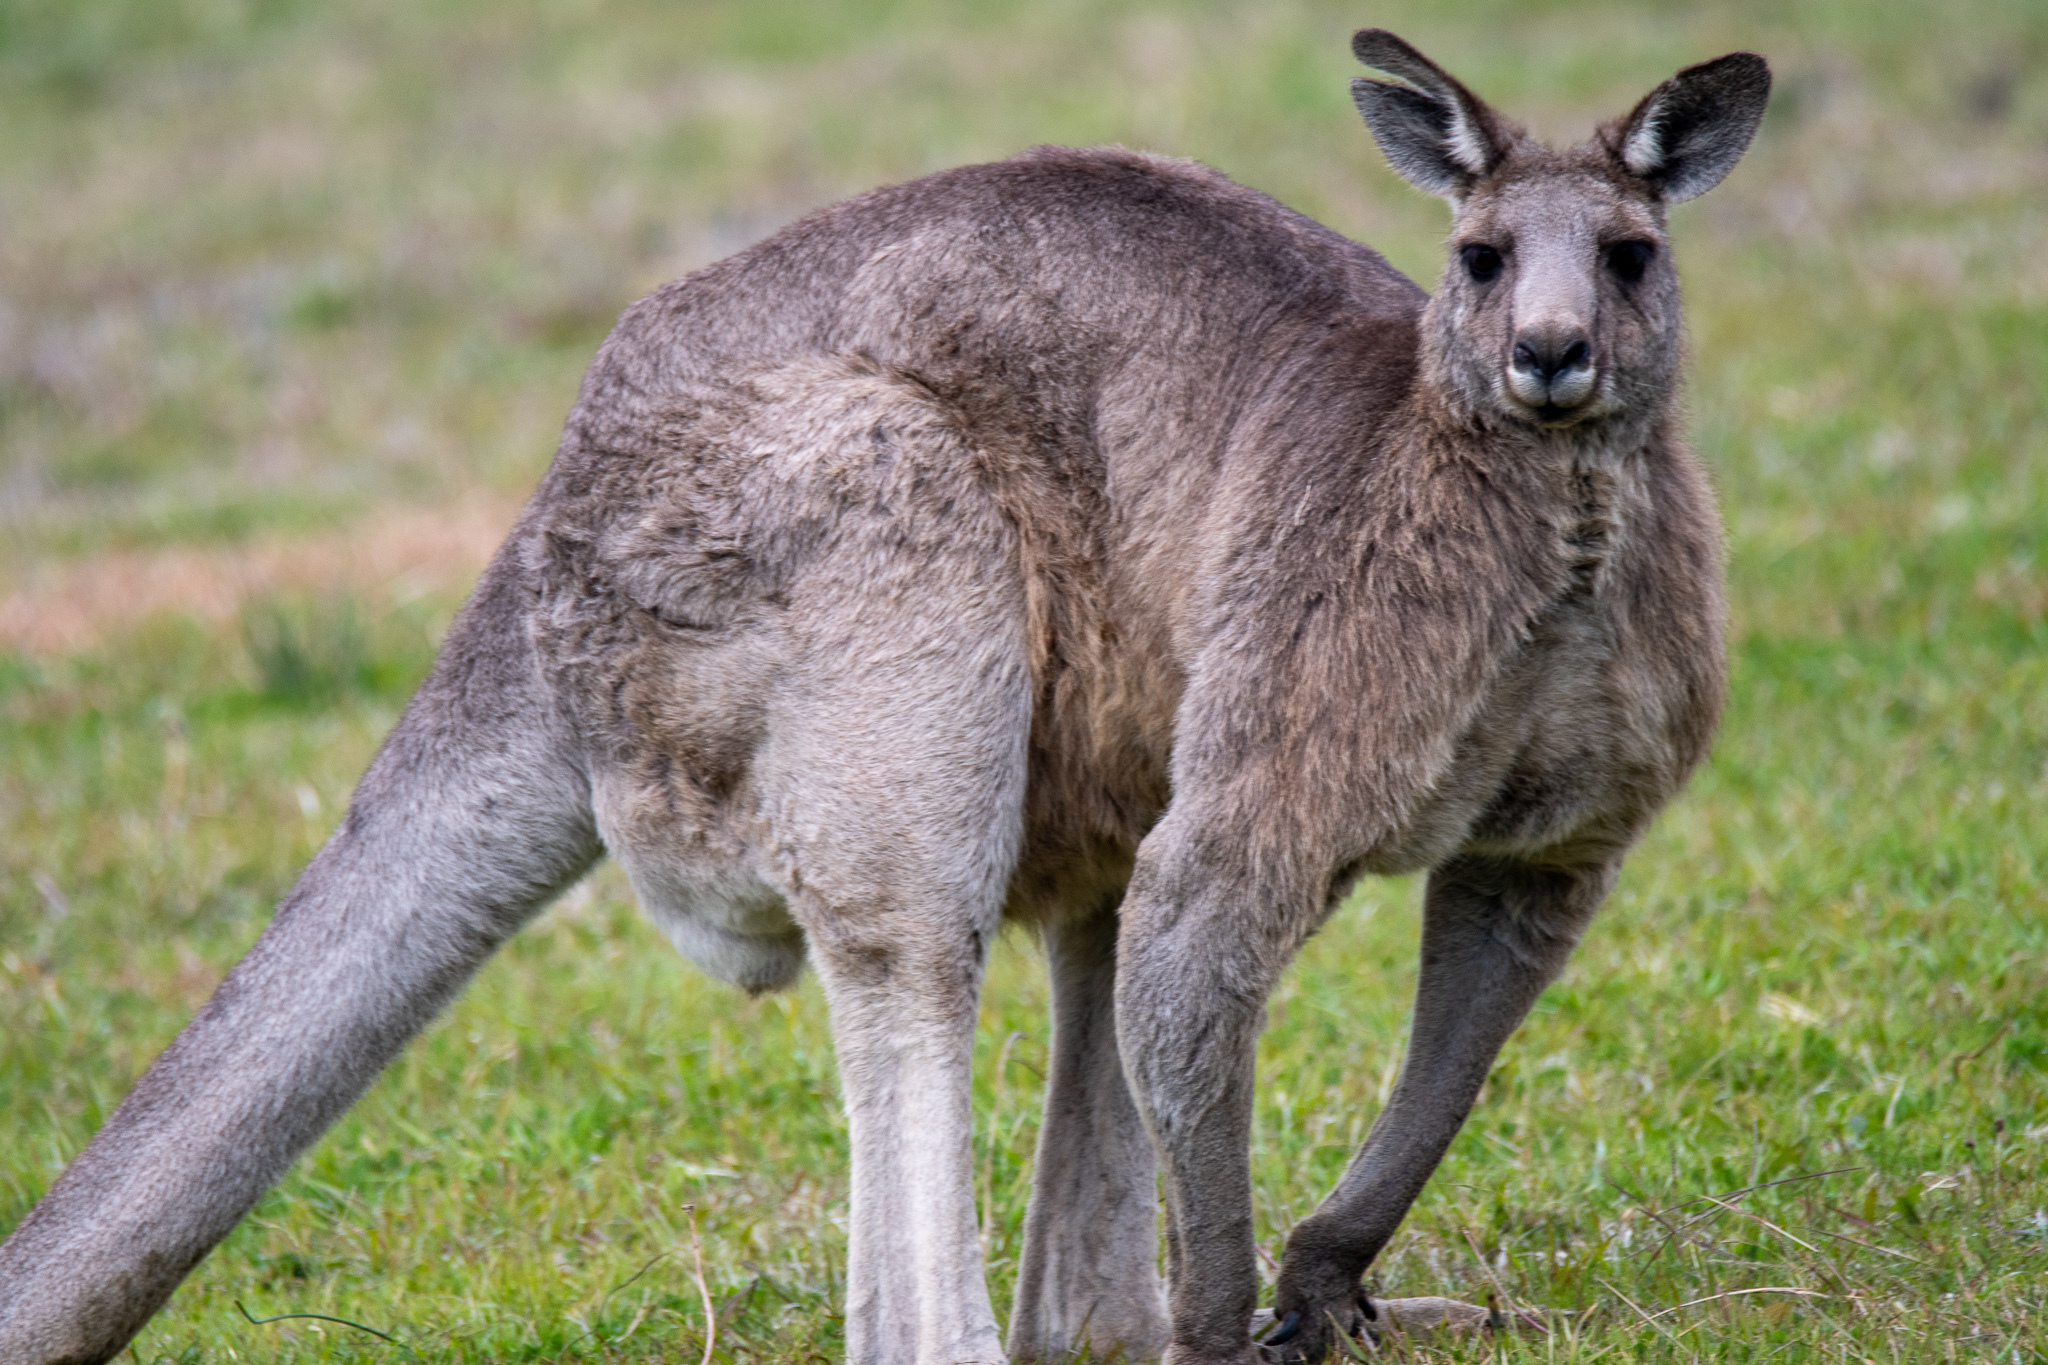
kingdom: Animalia
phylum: Chordata
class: Mammalia
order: Diprotodontia
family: Macropodidae
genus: Macropus
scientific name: Macropus giganteus
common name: Eastern grey kangaroo
